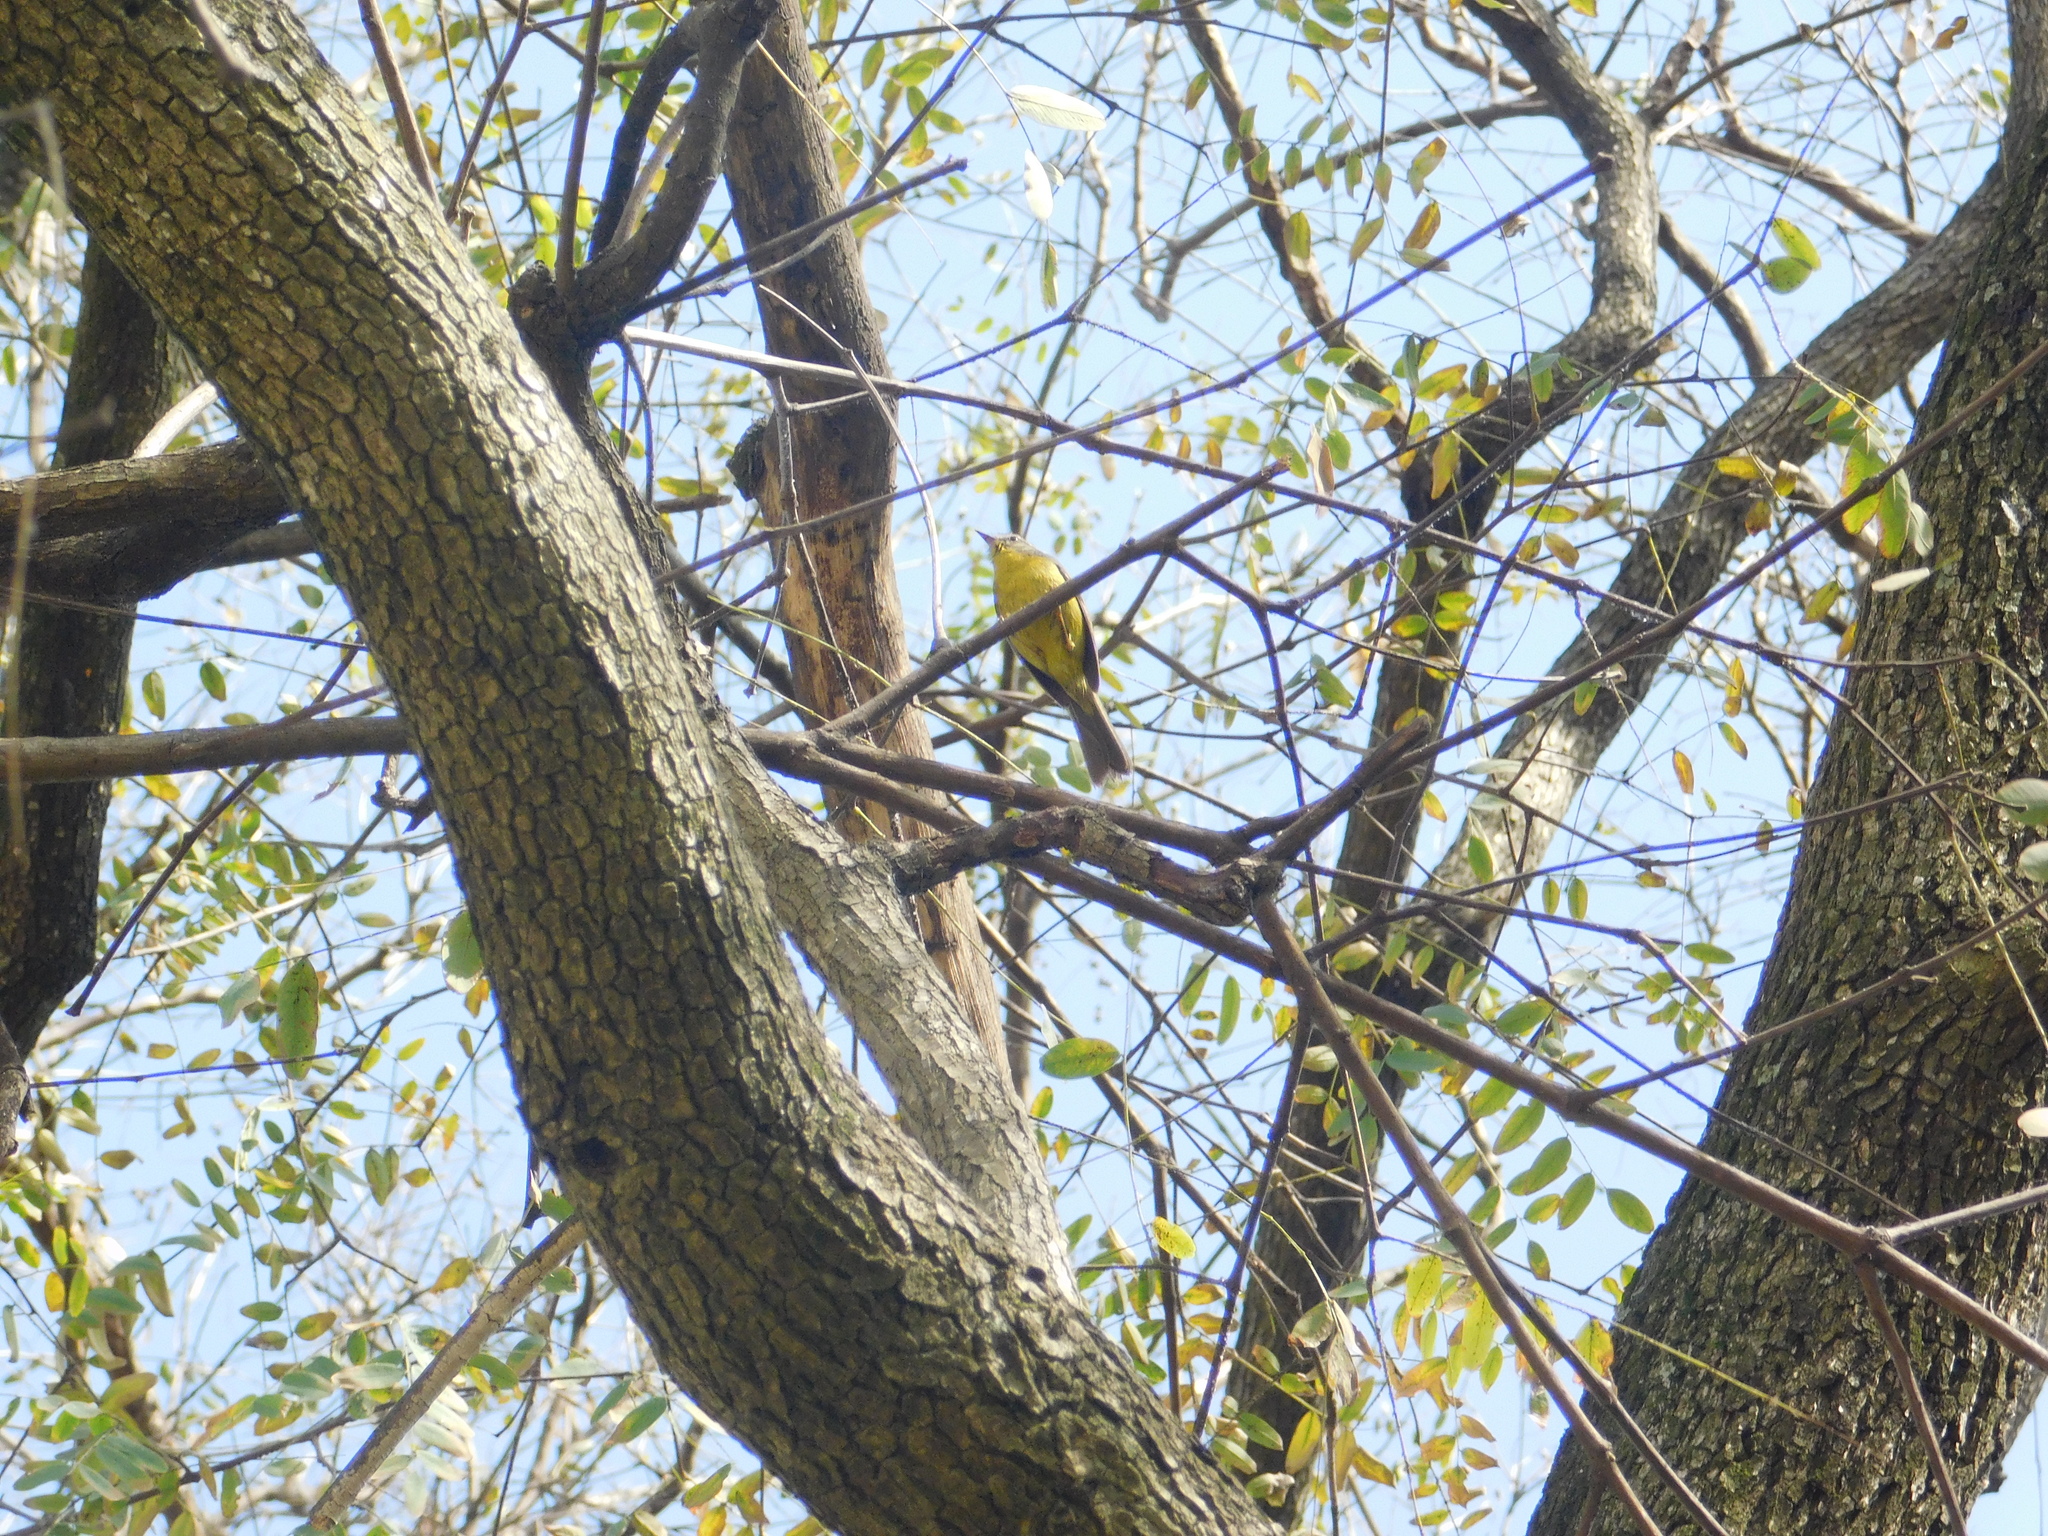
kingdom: Animalia
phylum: Chordata
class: Aves
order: Passeriformes
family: Parulidae
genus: Basileuterus
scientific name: Basileuterus culicivorus
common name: Golden-crowned warbler
